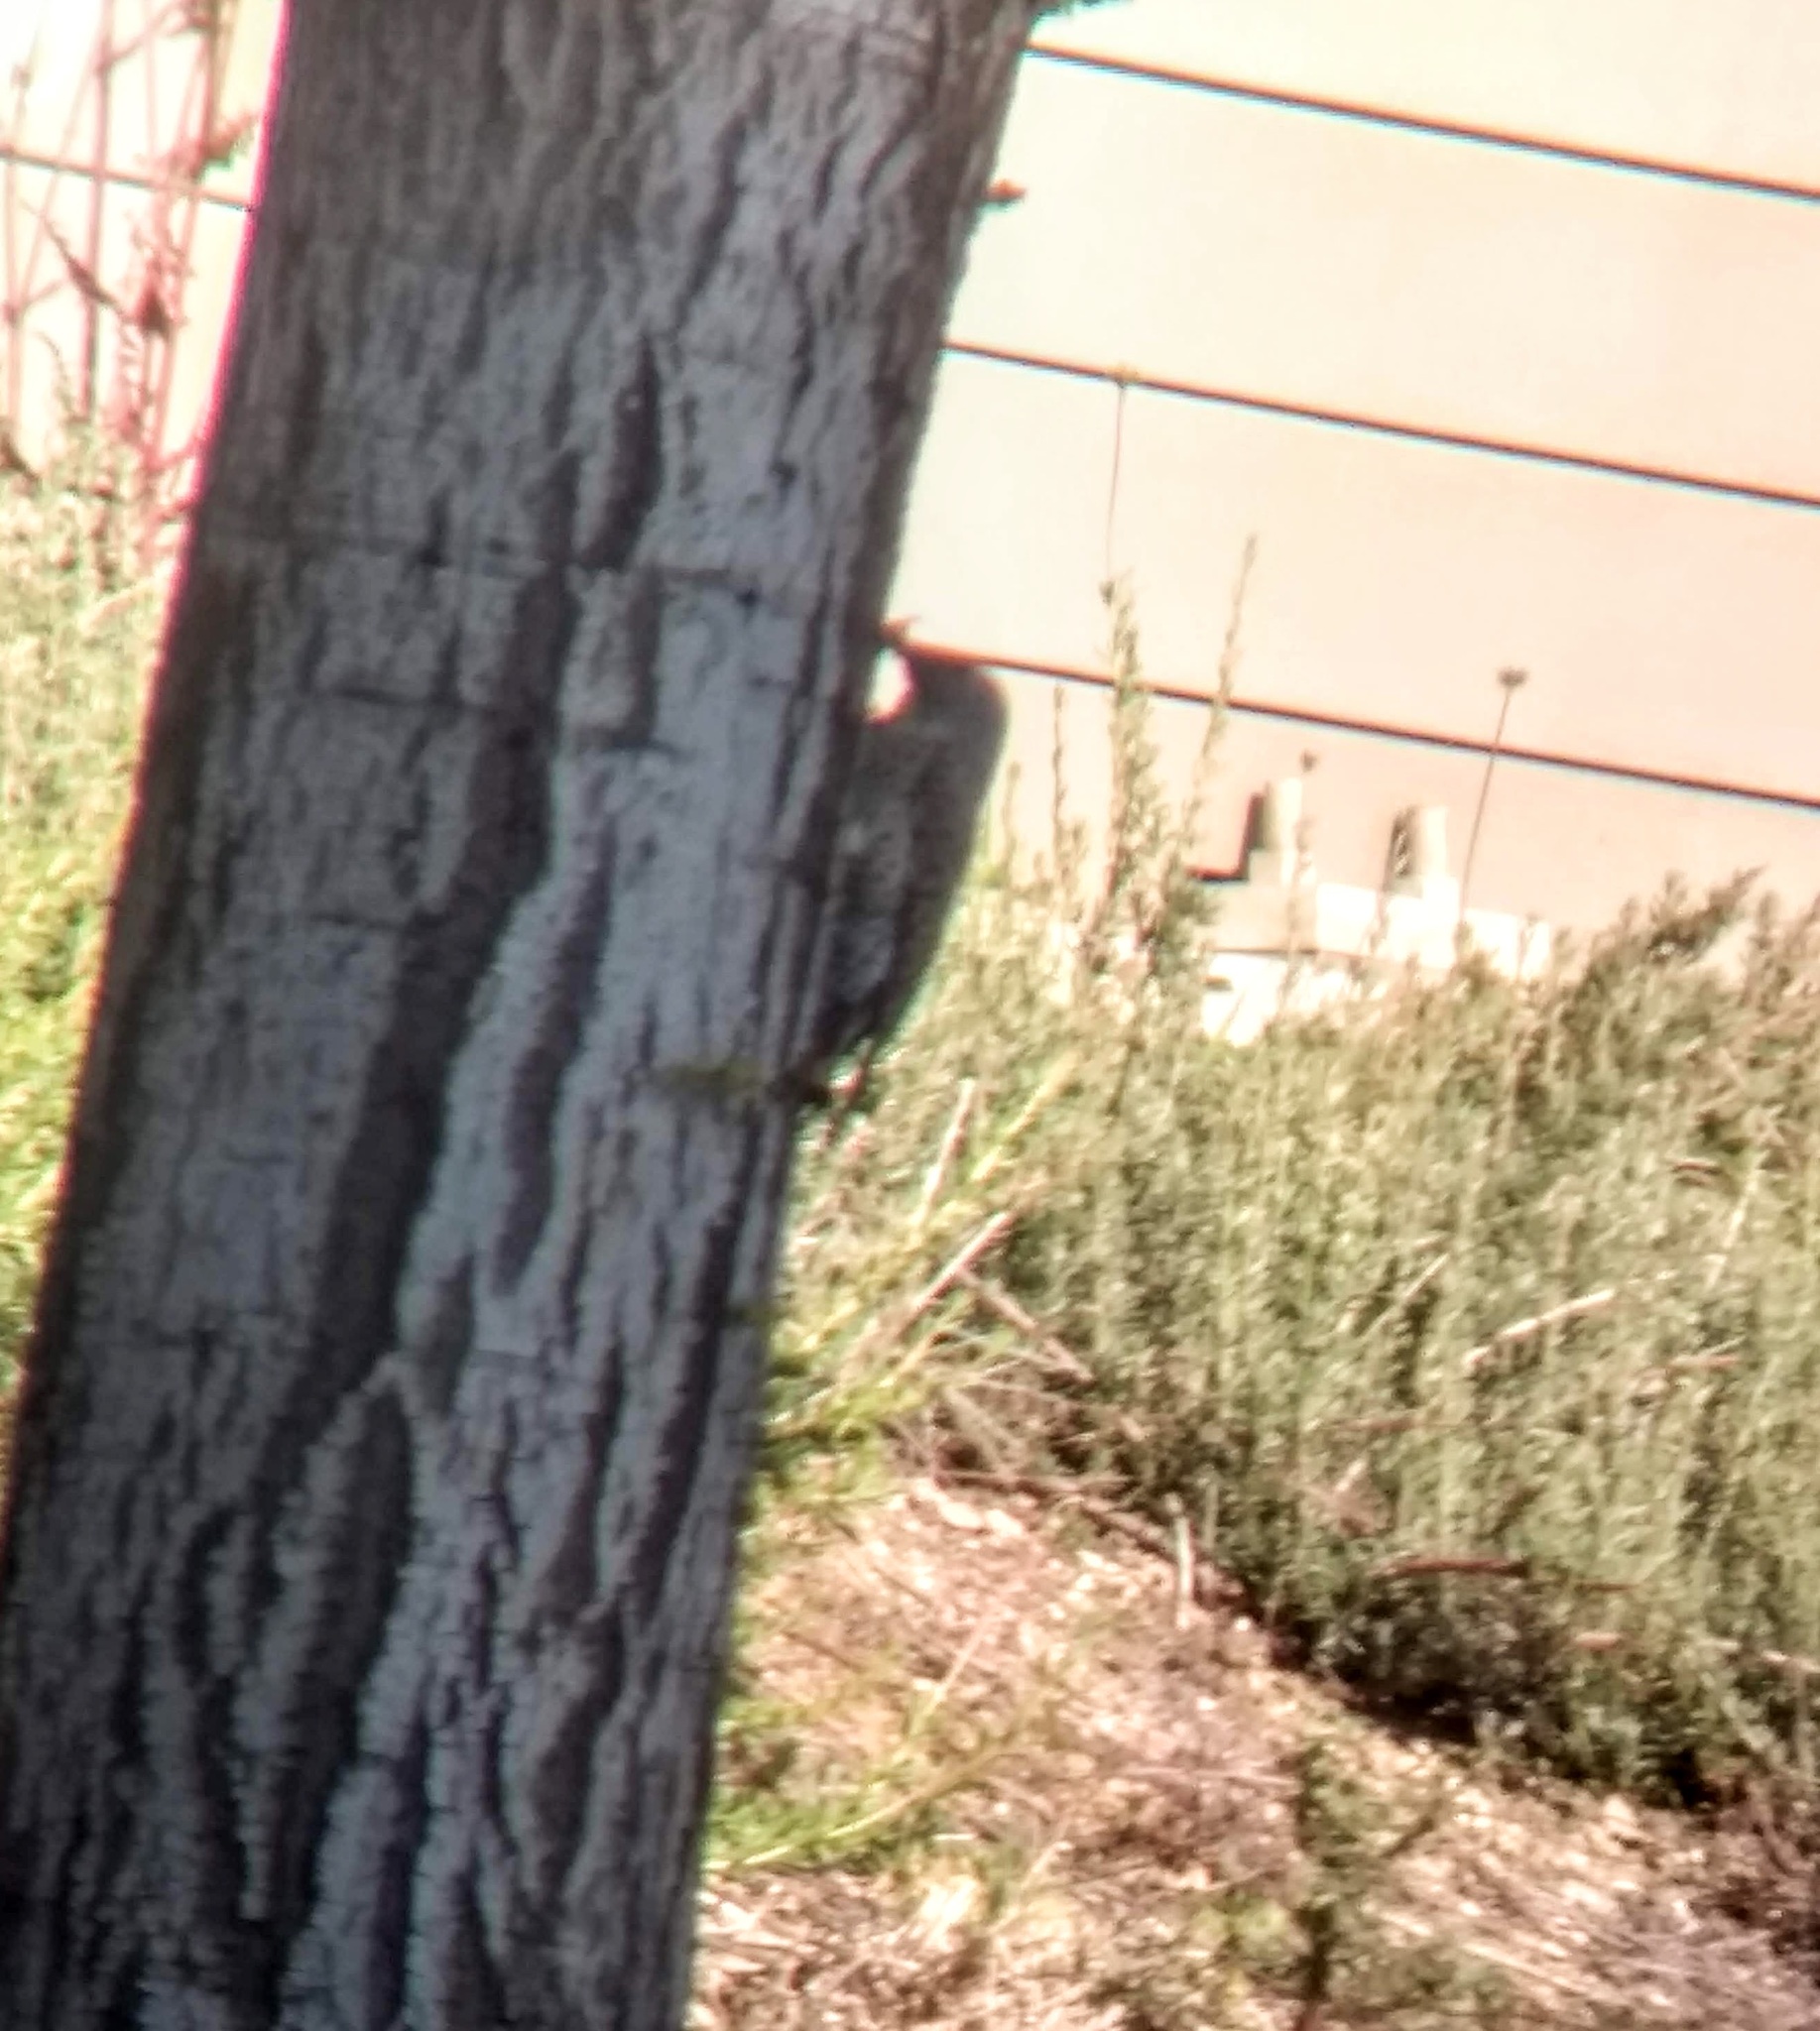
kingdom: Animalia
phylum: Chordata
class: Aves
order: Piciformes
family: Picidae
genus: Colaptes
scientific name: Colaptes auratus
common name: Northern flicker
